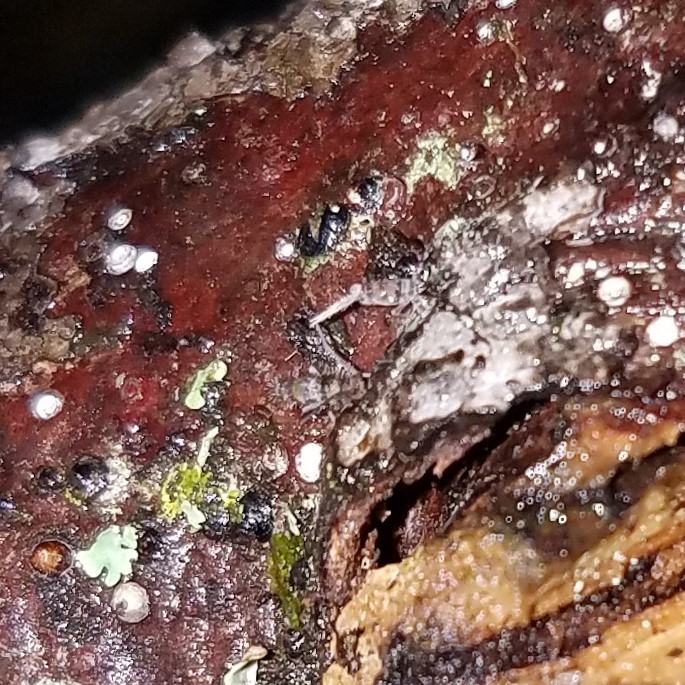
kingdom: Animalia
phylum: Arthropoda
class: Collembola
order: Entomobryomorpha
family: Entomobryidae
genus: Homidia
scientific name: Homidia sauteri
